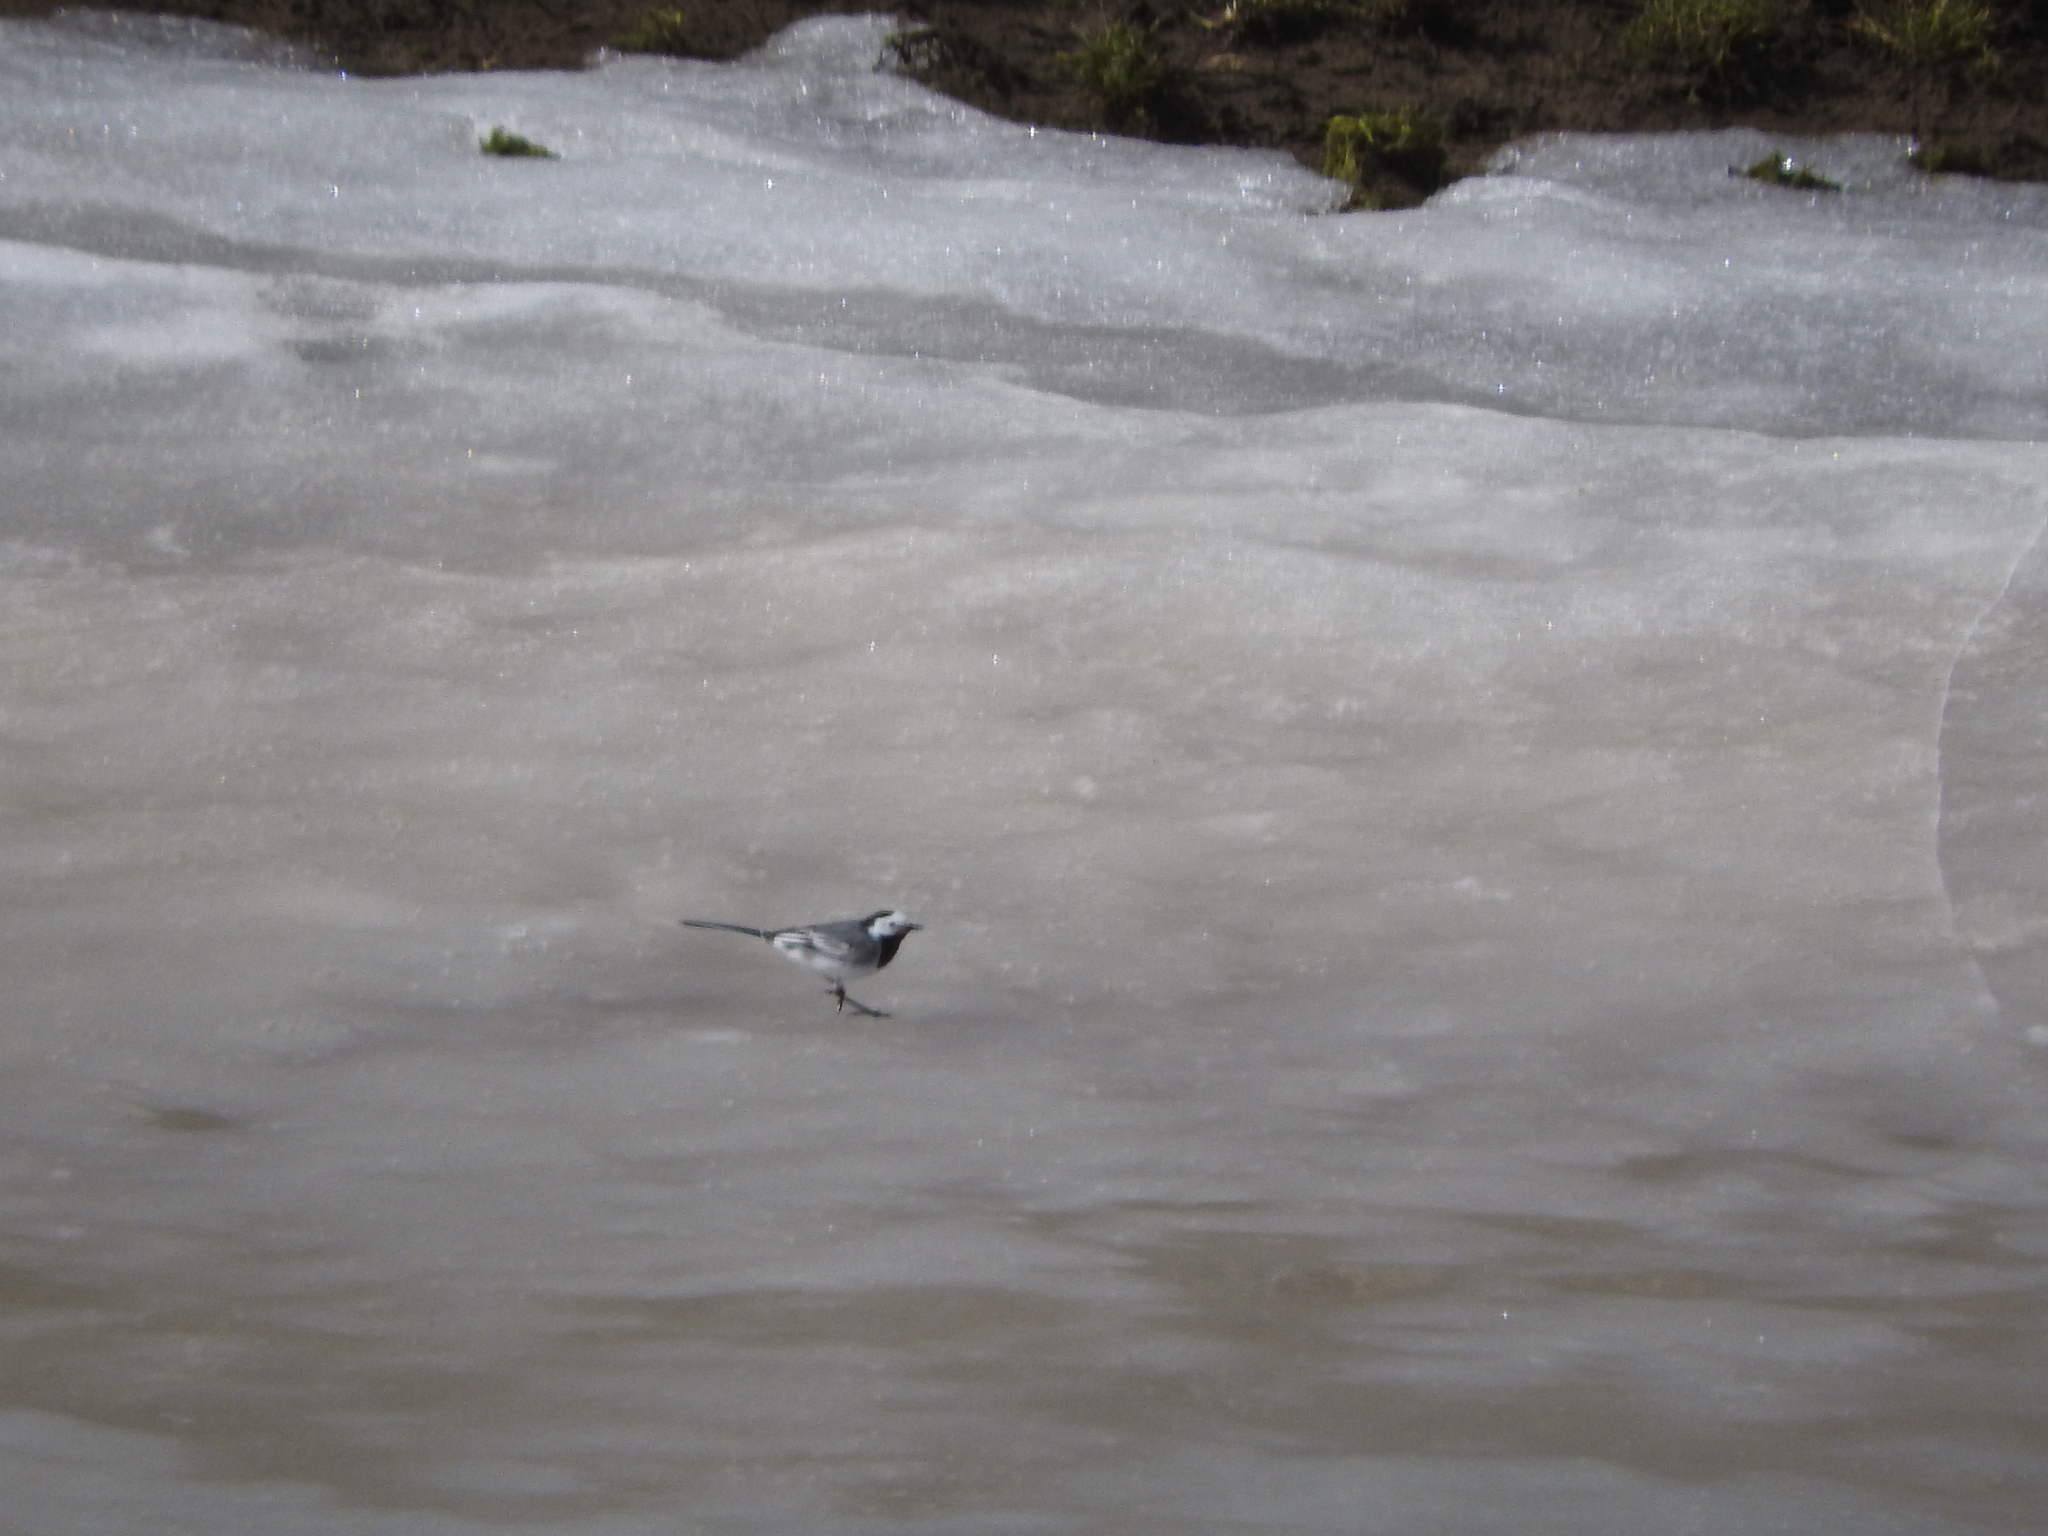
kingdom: Animalia
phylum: Chordata
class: Aves
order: Passeriformes
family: Motacillidae
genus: Motacilla
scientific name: Motacilla alba
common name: White wagtail
